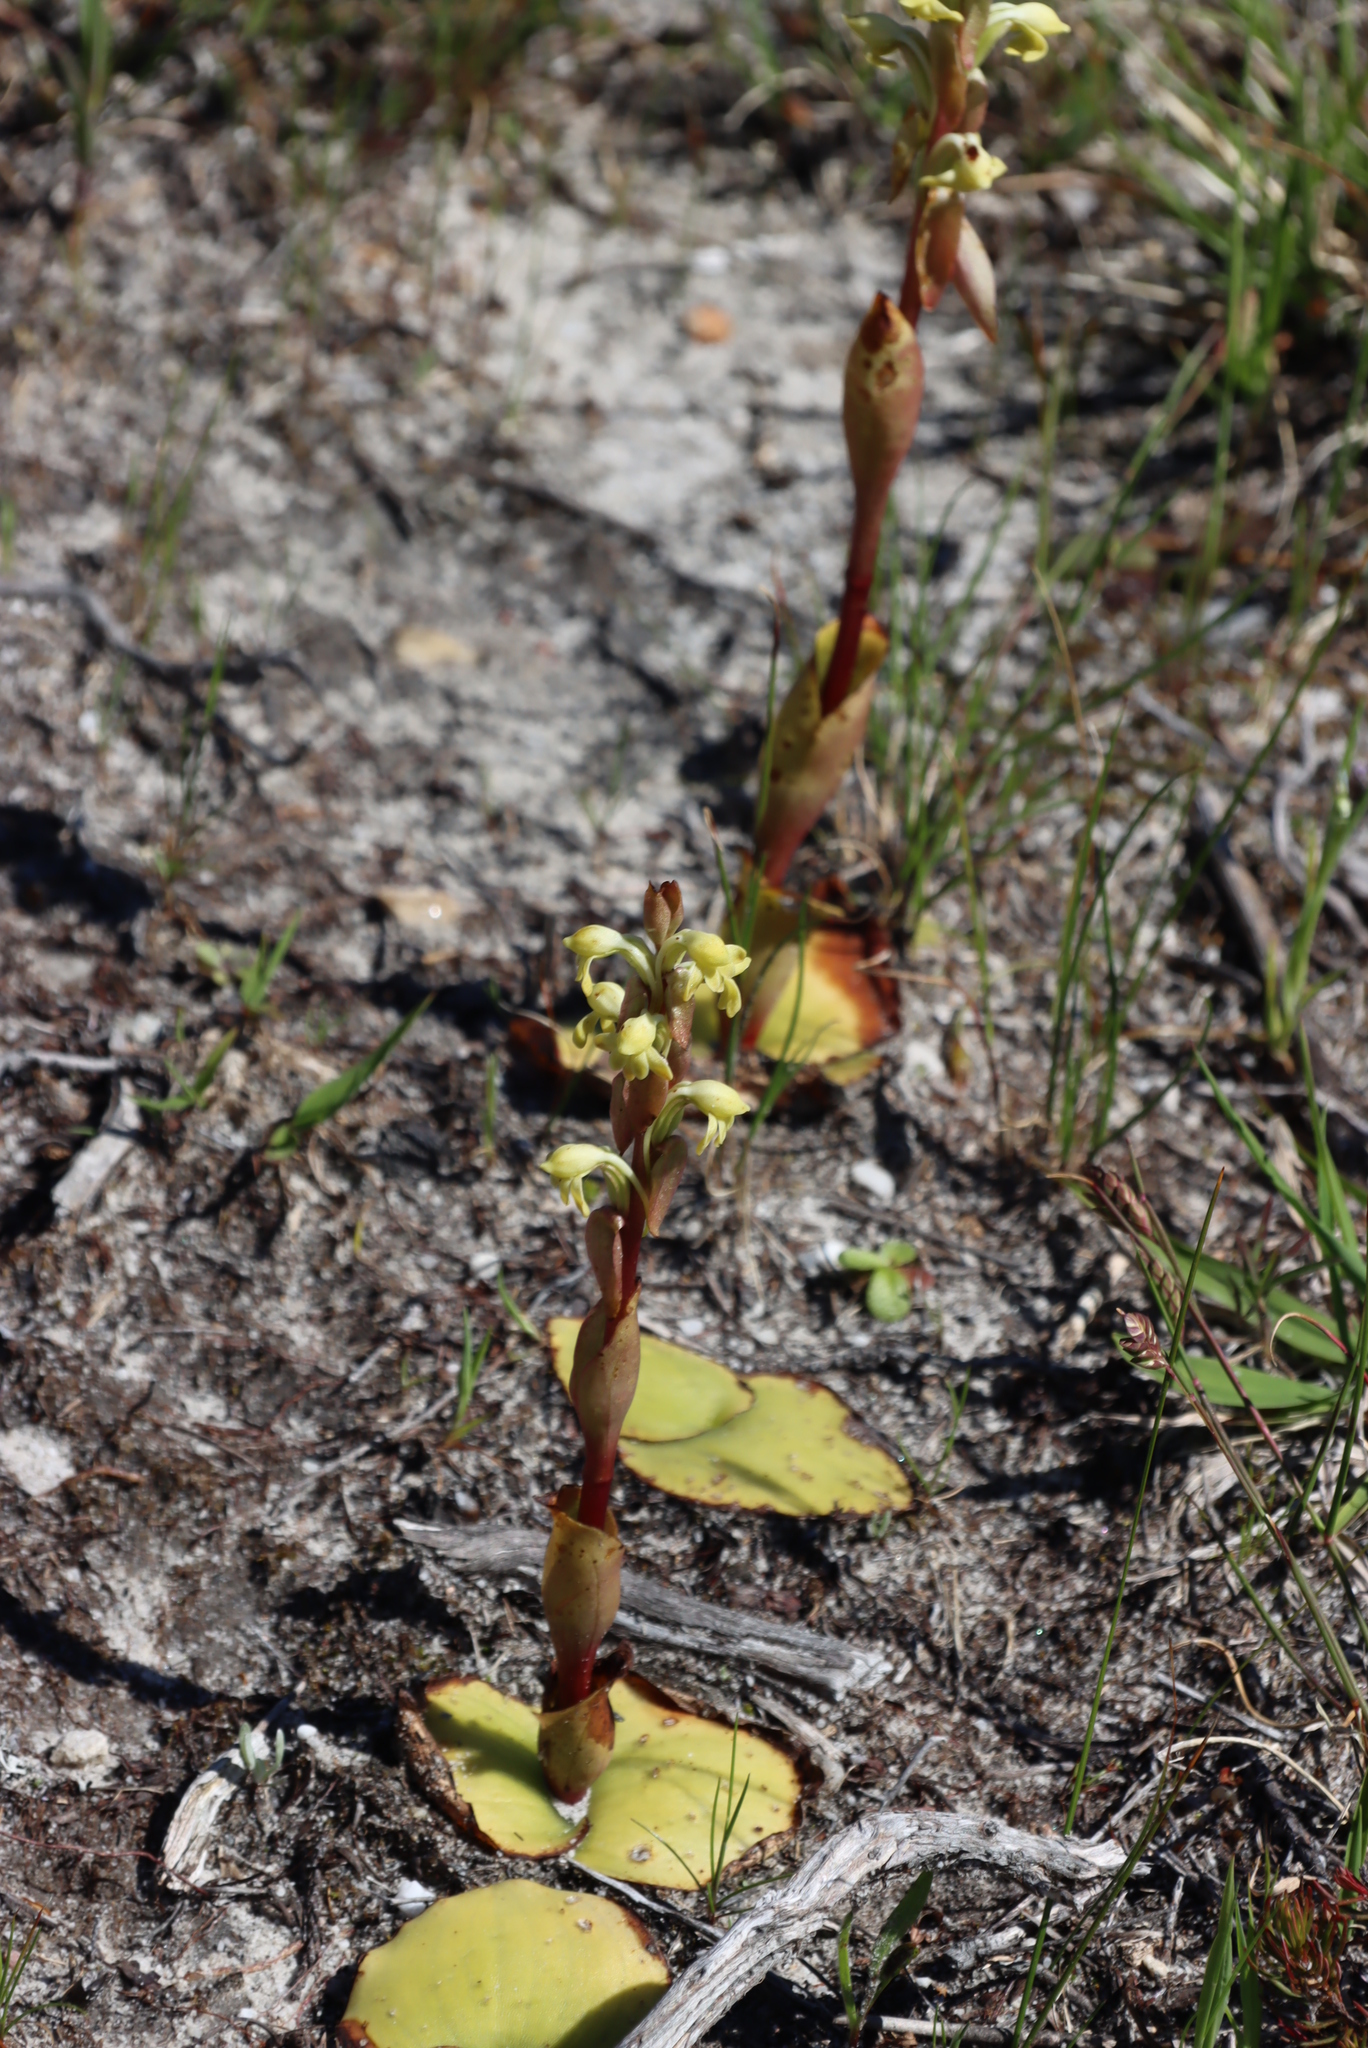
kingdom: Plantae
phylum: Tracheophyta
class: Liliopsida
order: Asparagales
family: Orchidaceae
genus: Satyrium
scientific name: Satyrium bicorne
